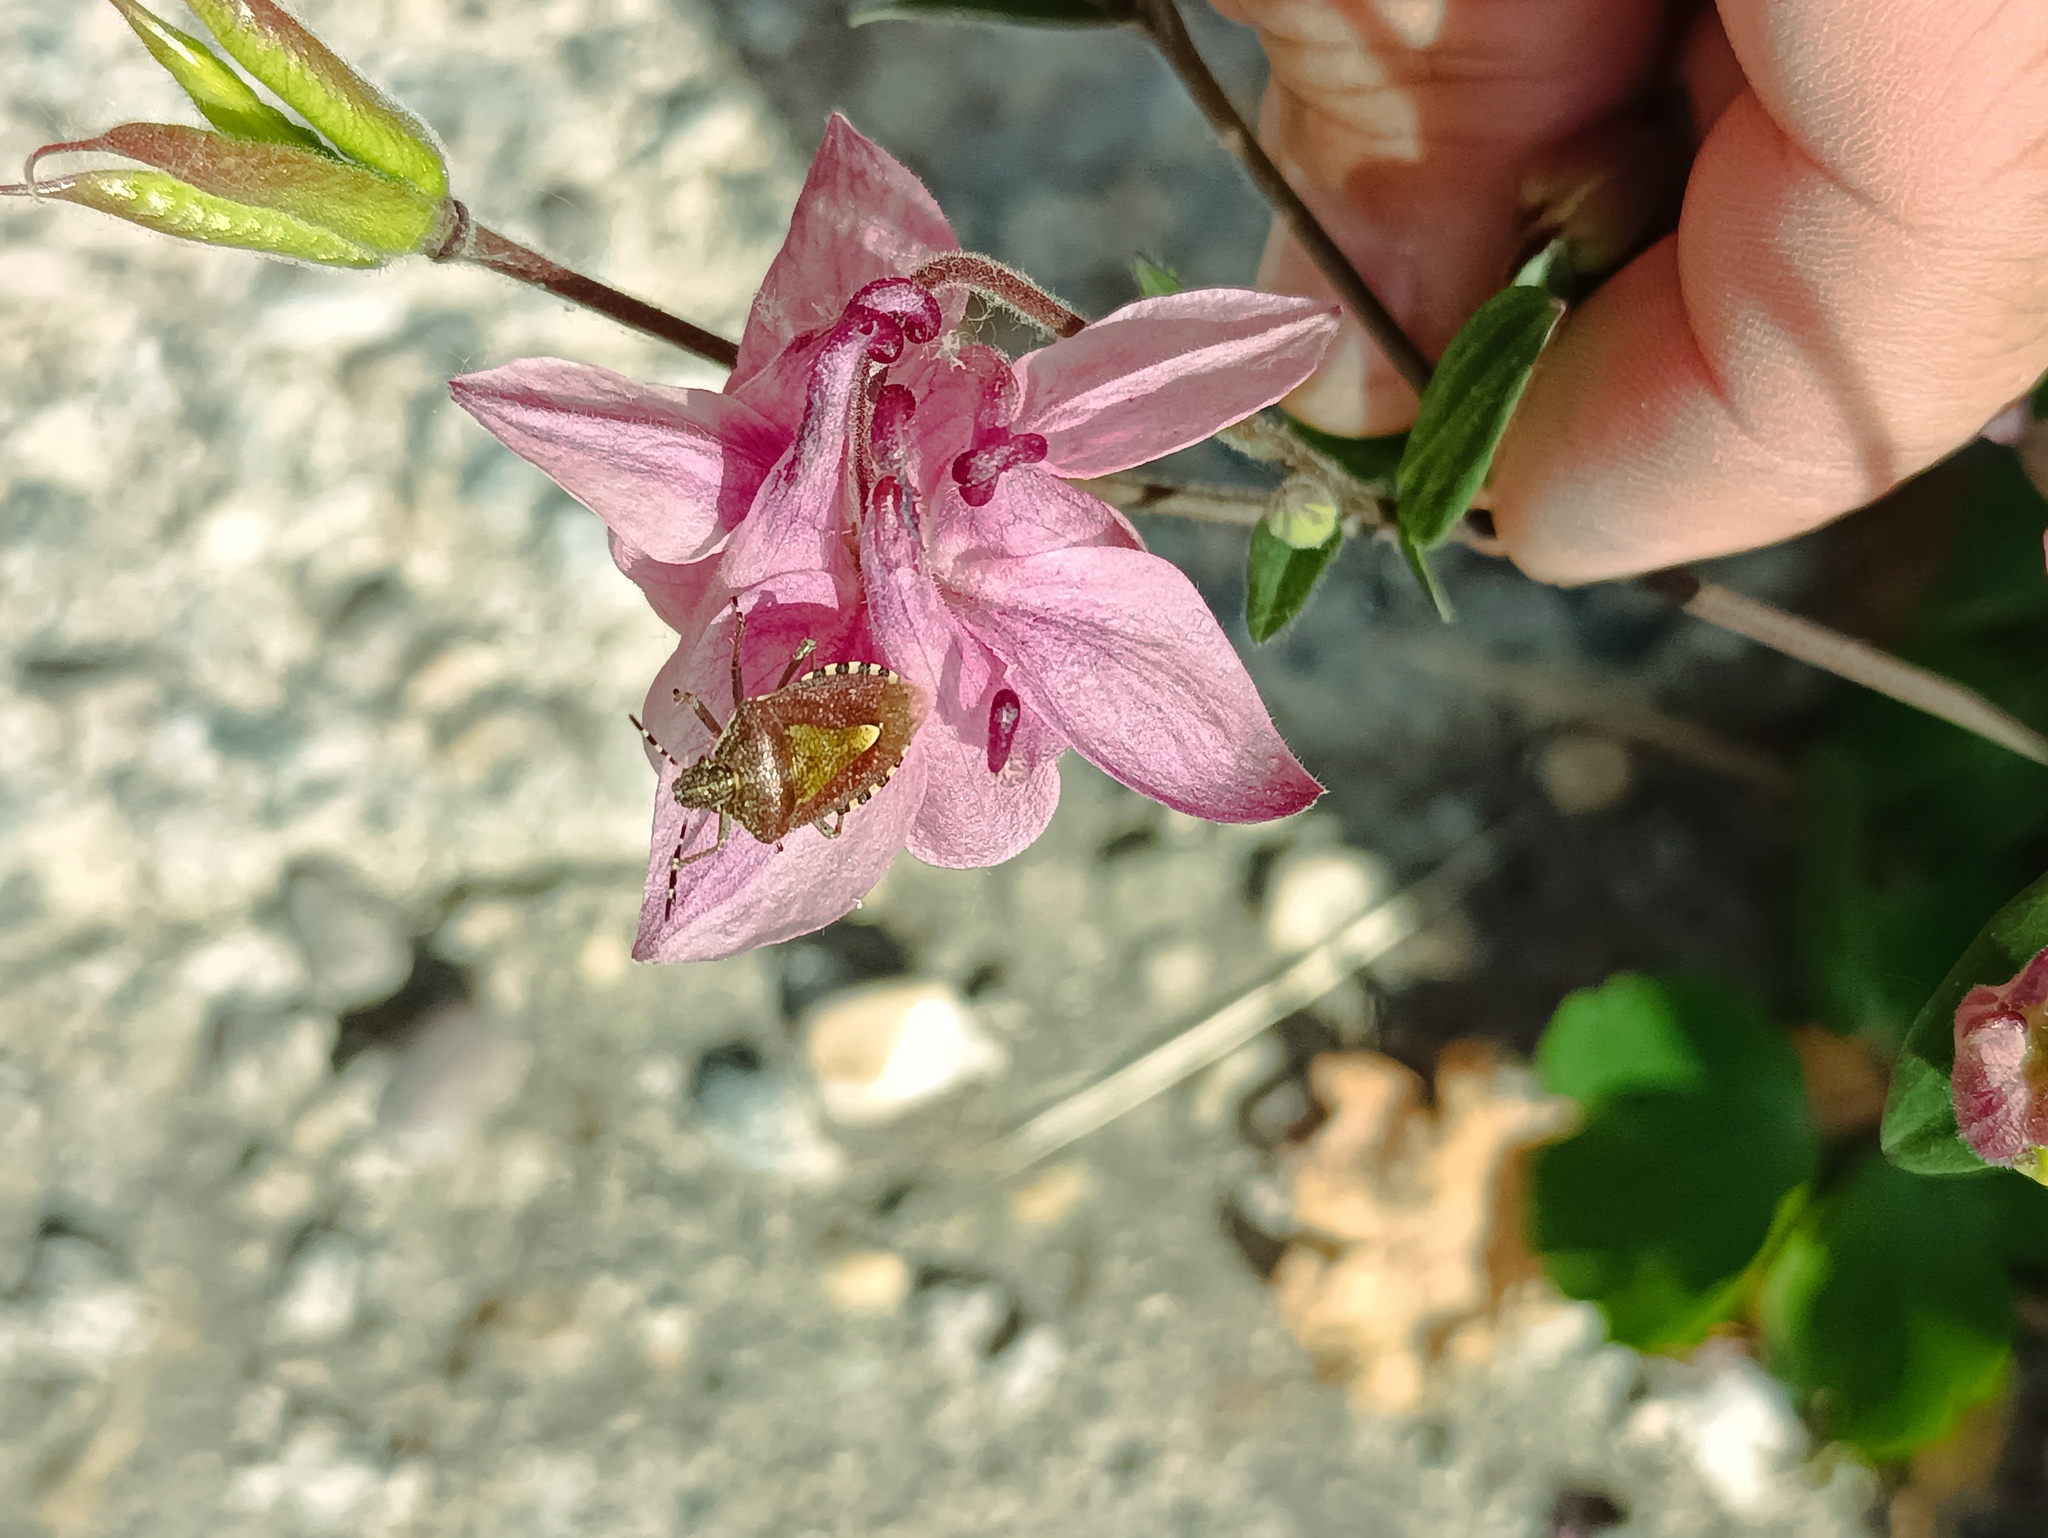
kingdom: Animalia
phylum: Arthropoda
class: Insecta
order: Hemiptera
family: Pentatomidae
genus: Dolycoris
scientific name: Dolycoris baccarum
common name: Sloe bug
